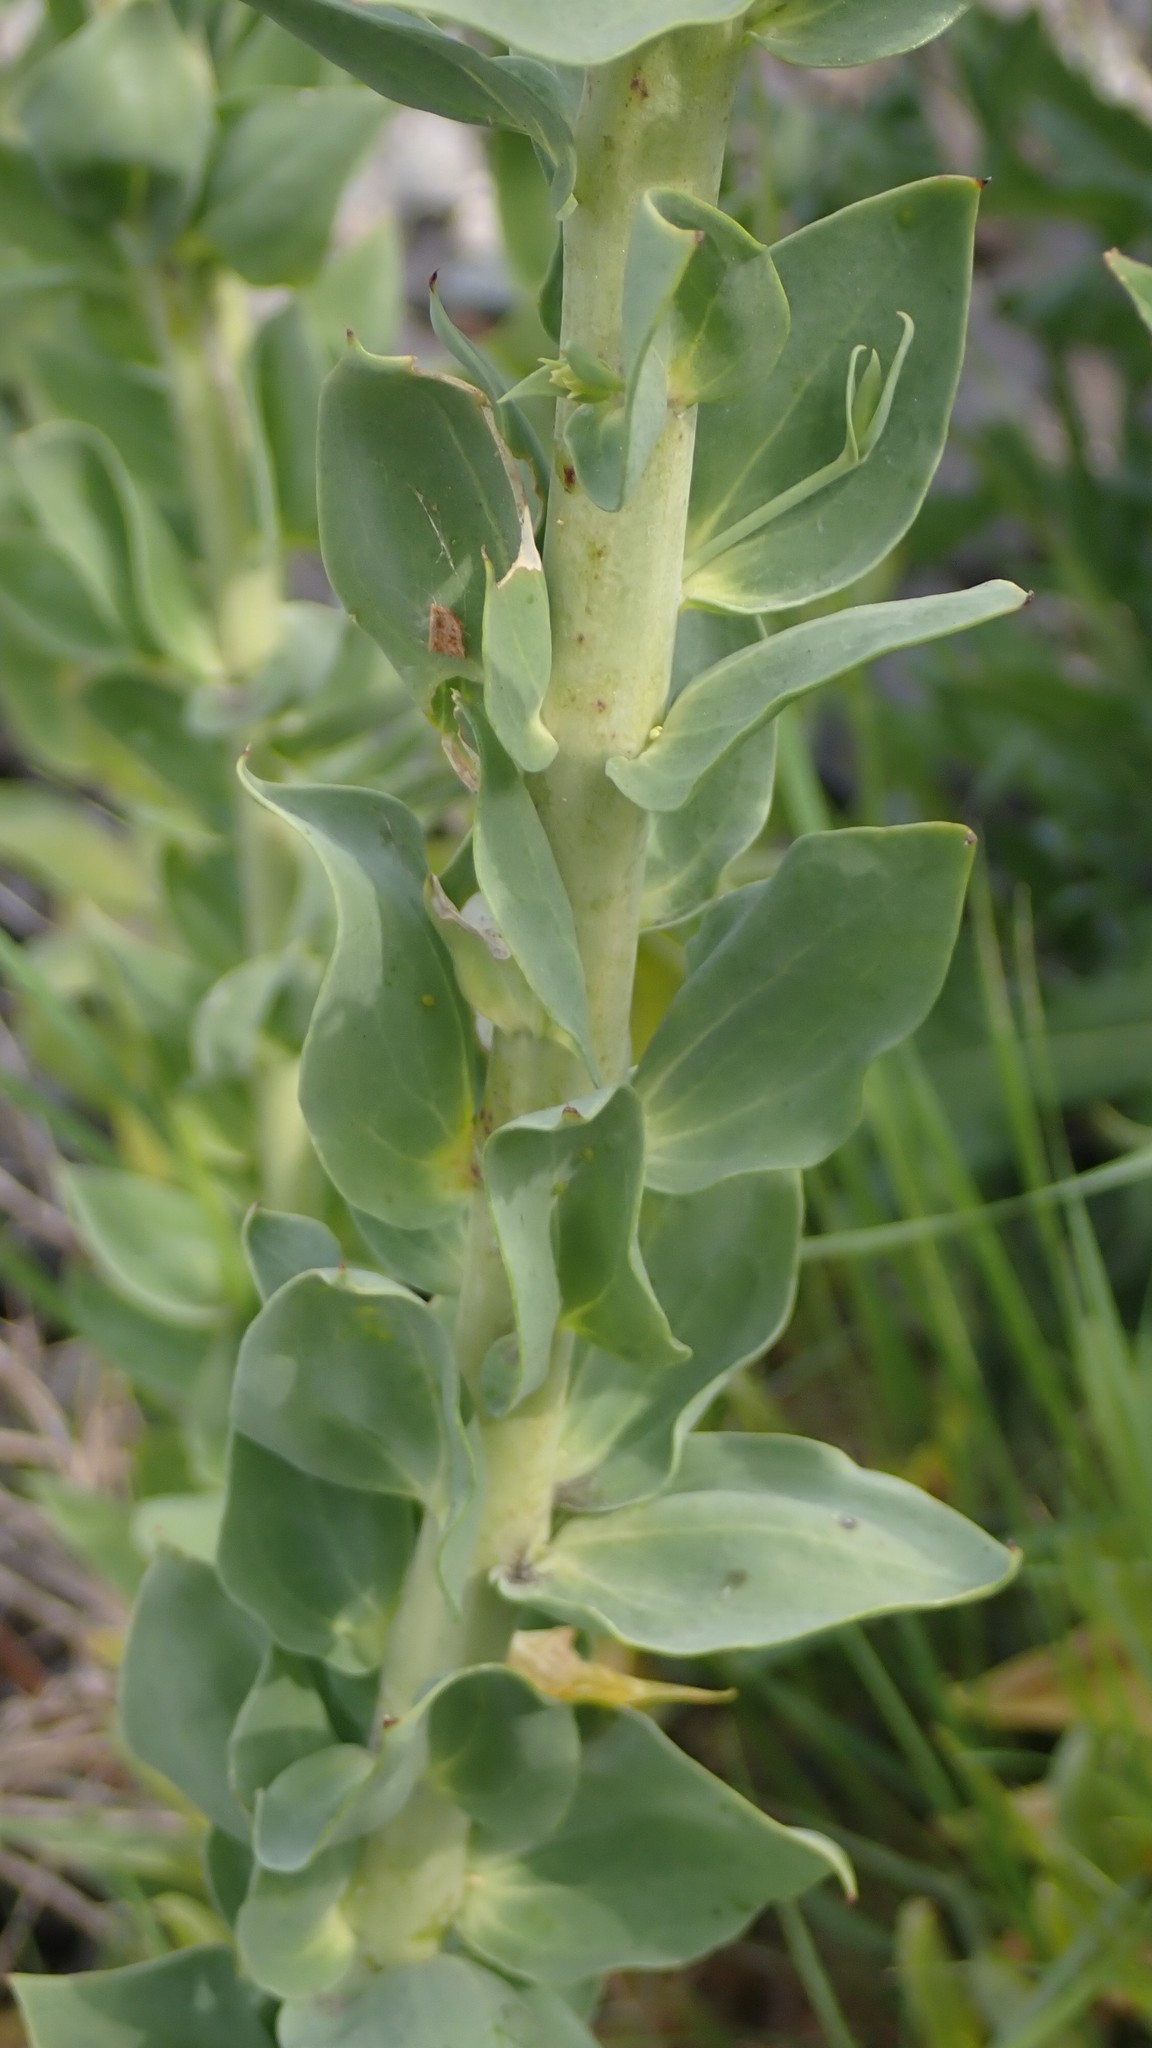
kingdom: Plantae
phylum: Tracheophyta
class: Magnoliopsida
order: Lamiales
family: Plantaginaceae
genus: Linaria
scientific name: Linaria dalmatica
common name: Dalmatian toadflax
